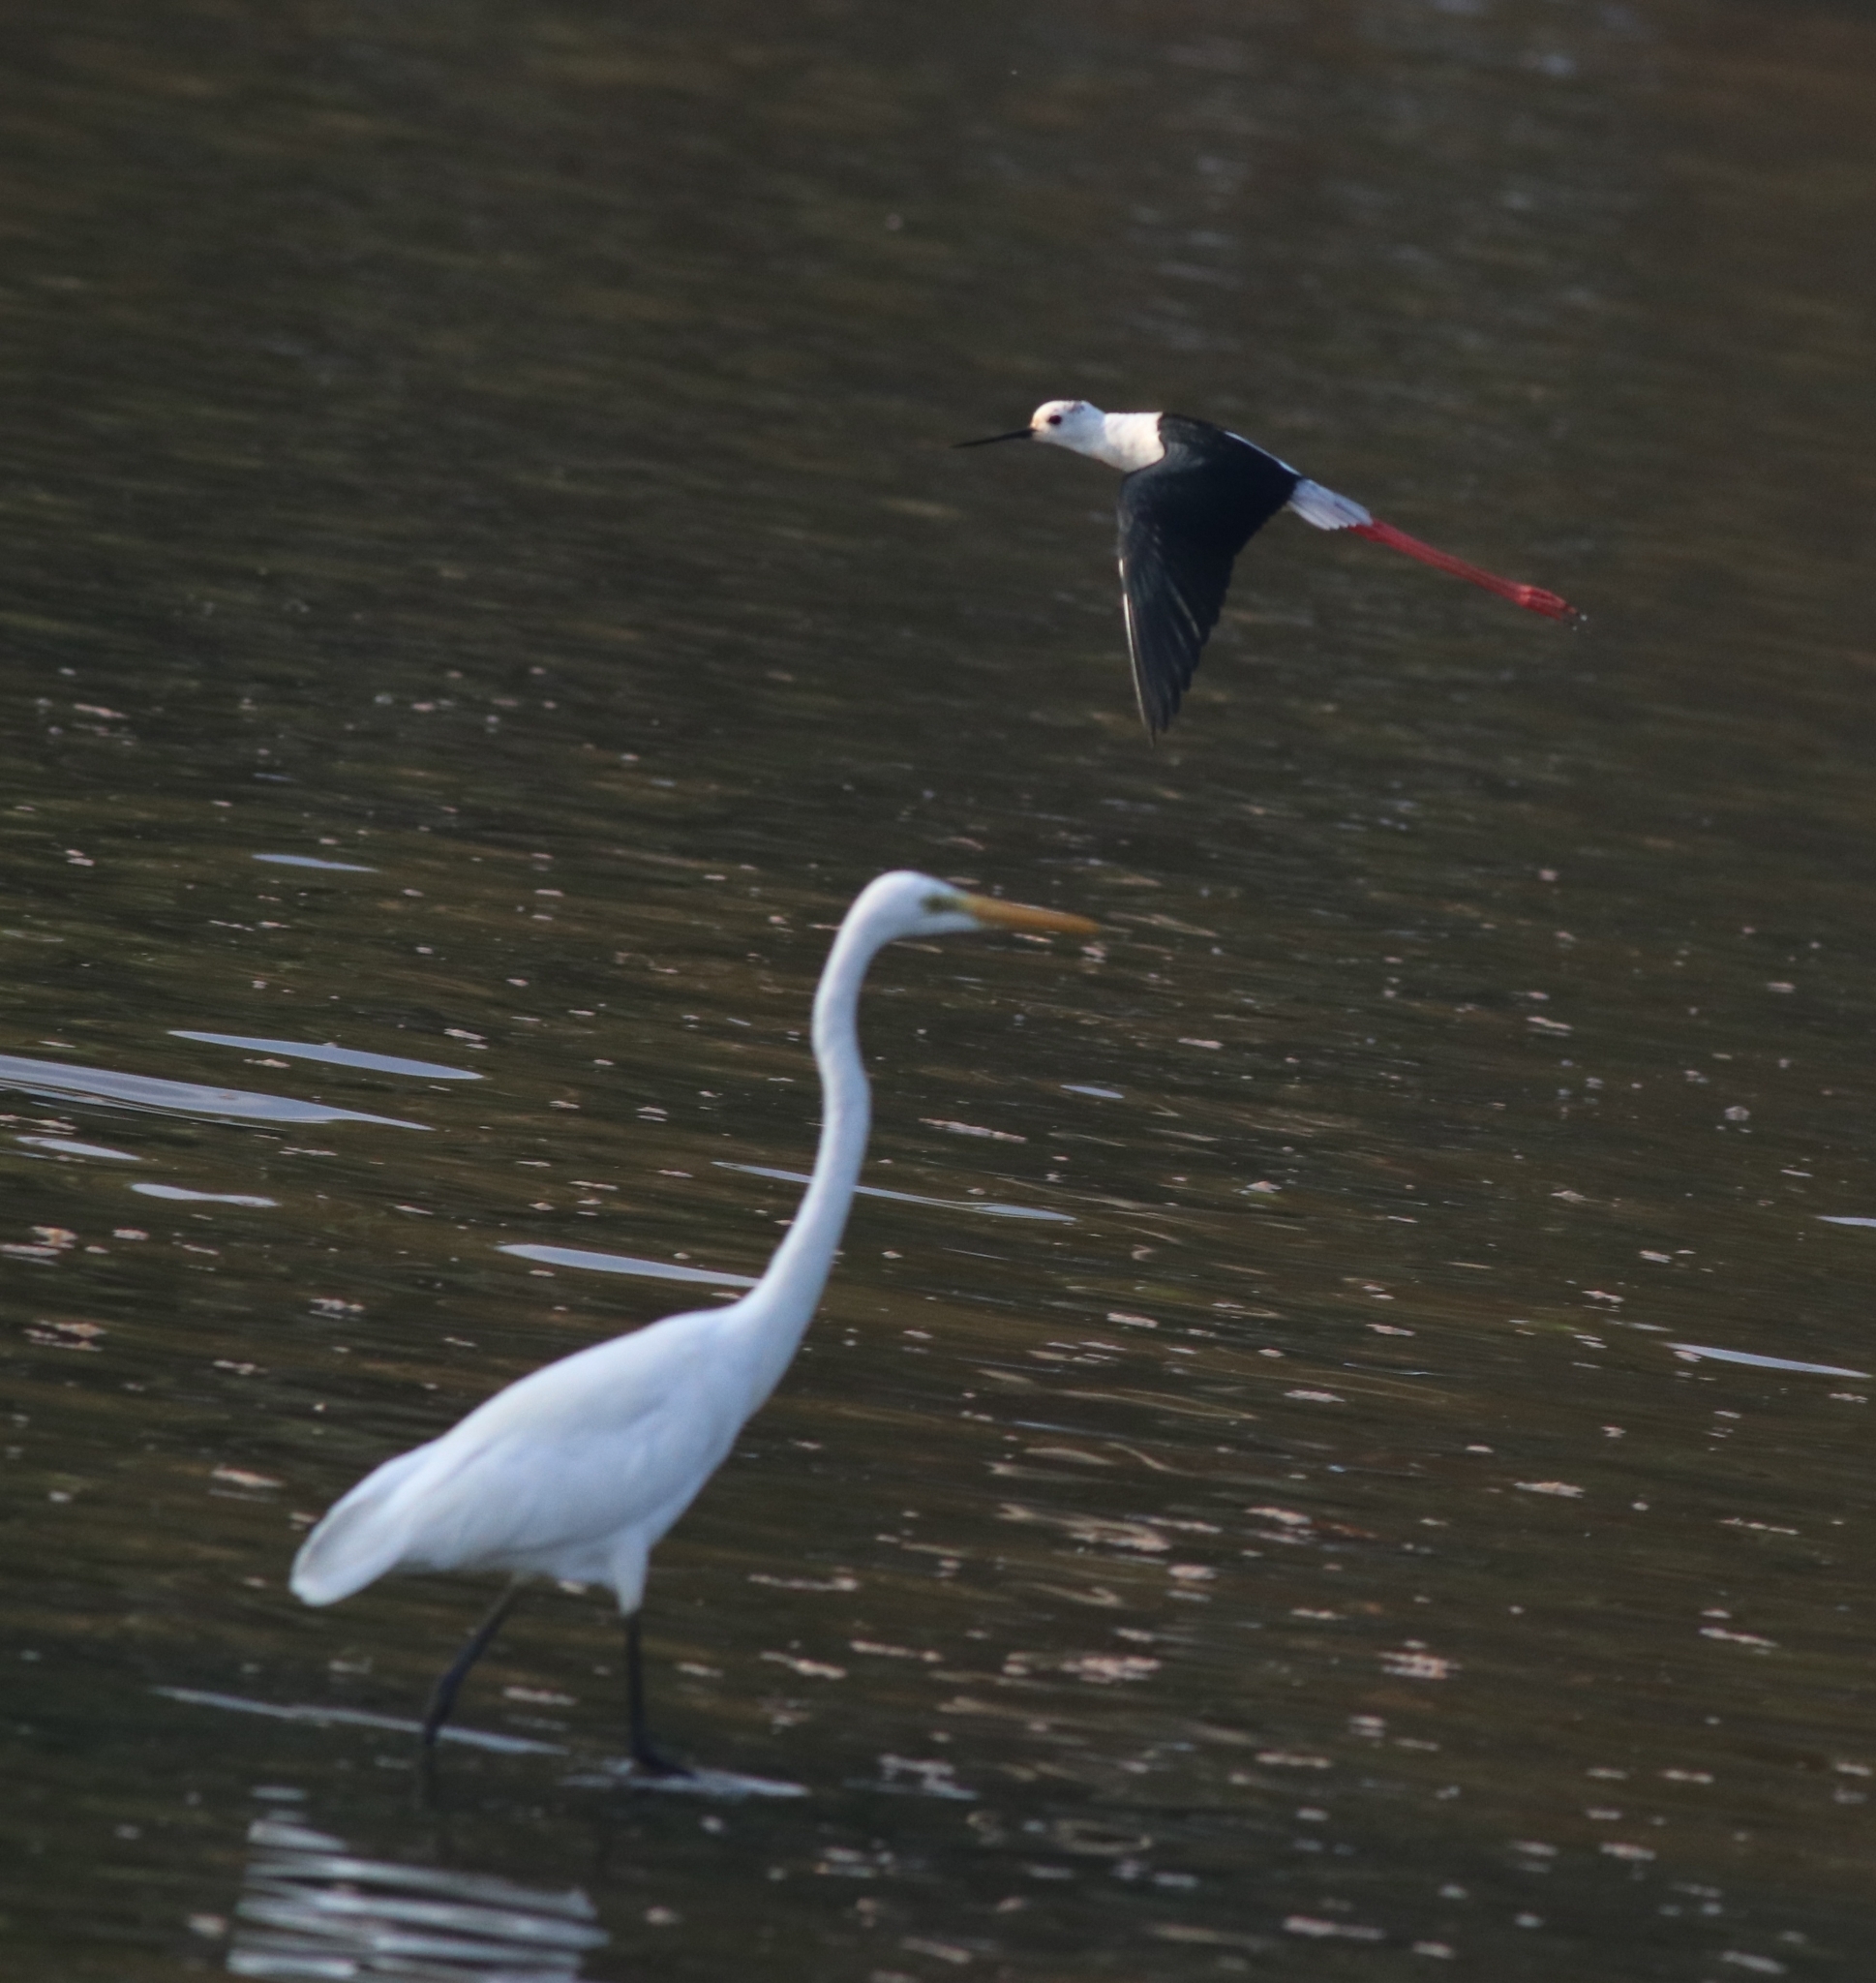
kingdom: Animalia
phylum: Chordata
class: Aves
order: Charadriiformes
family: Recurvirostridae
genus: Himantopus
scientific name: Himantopus himantopus
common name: Black-winged stilt
